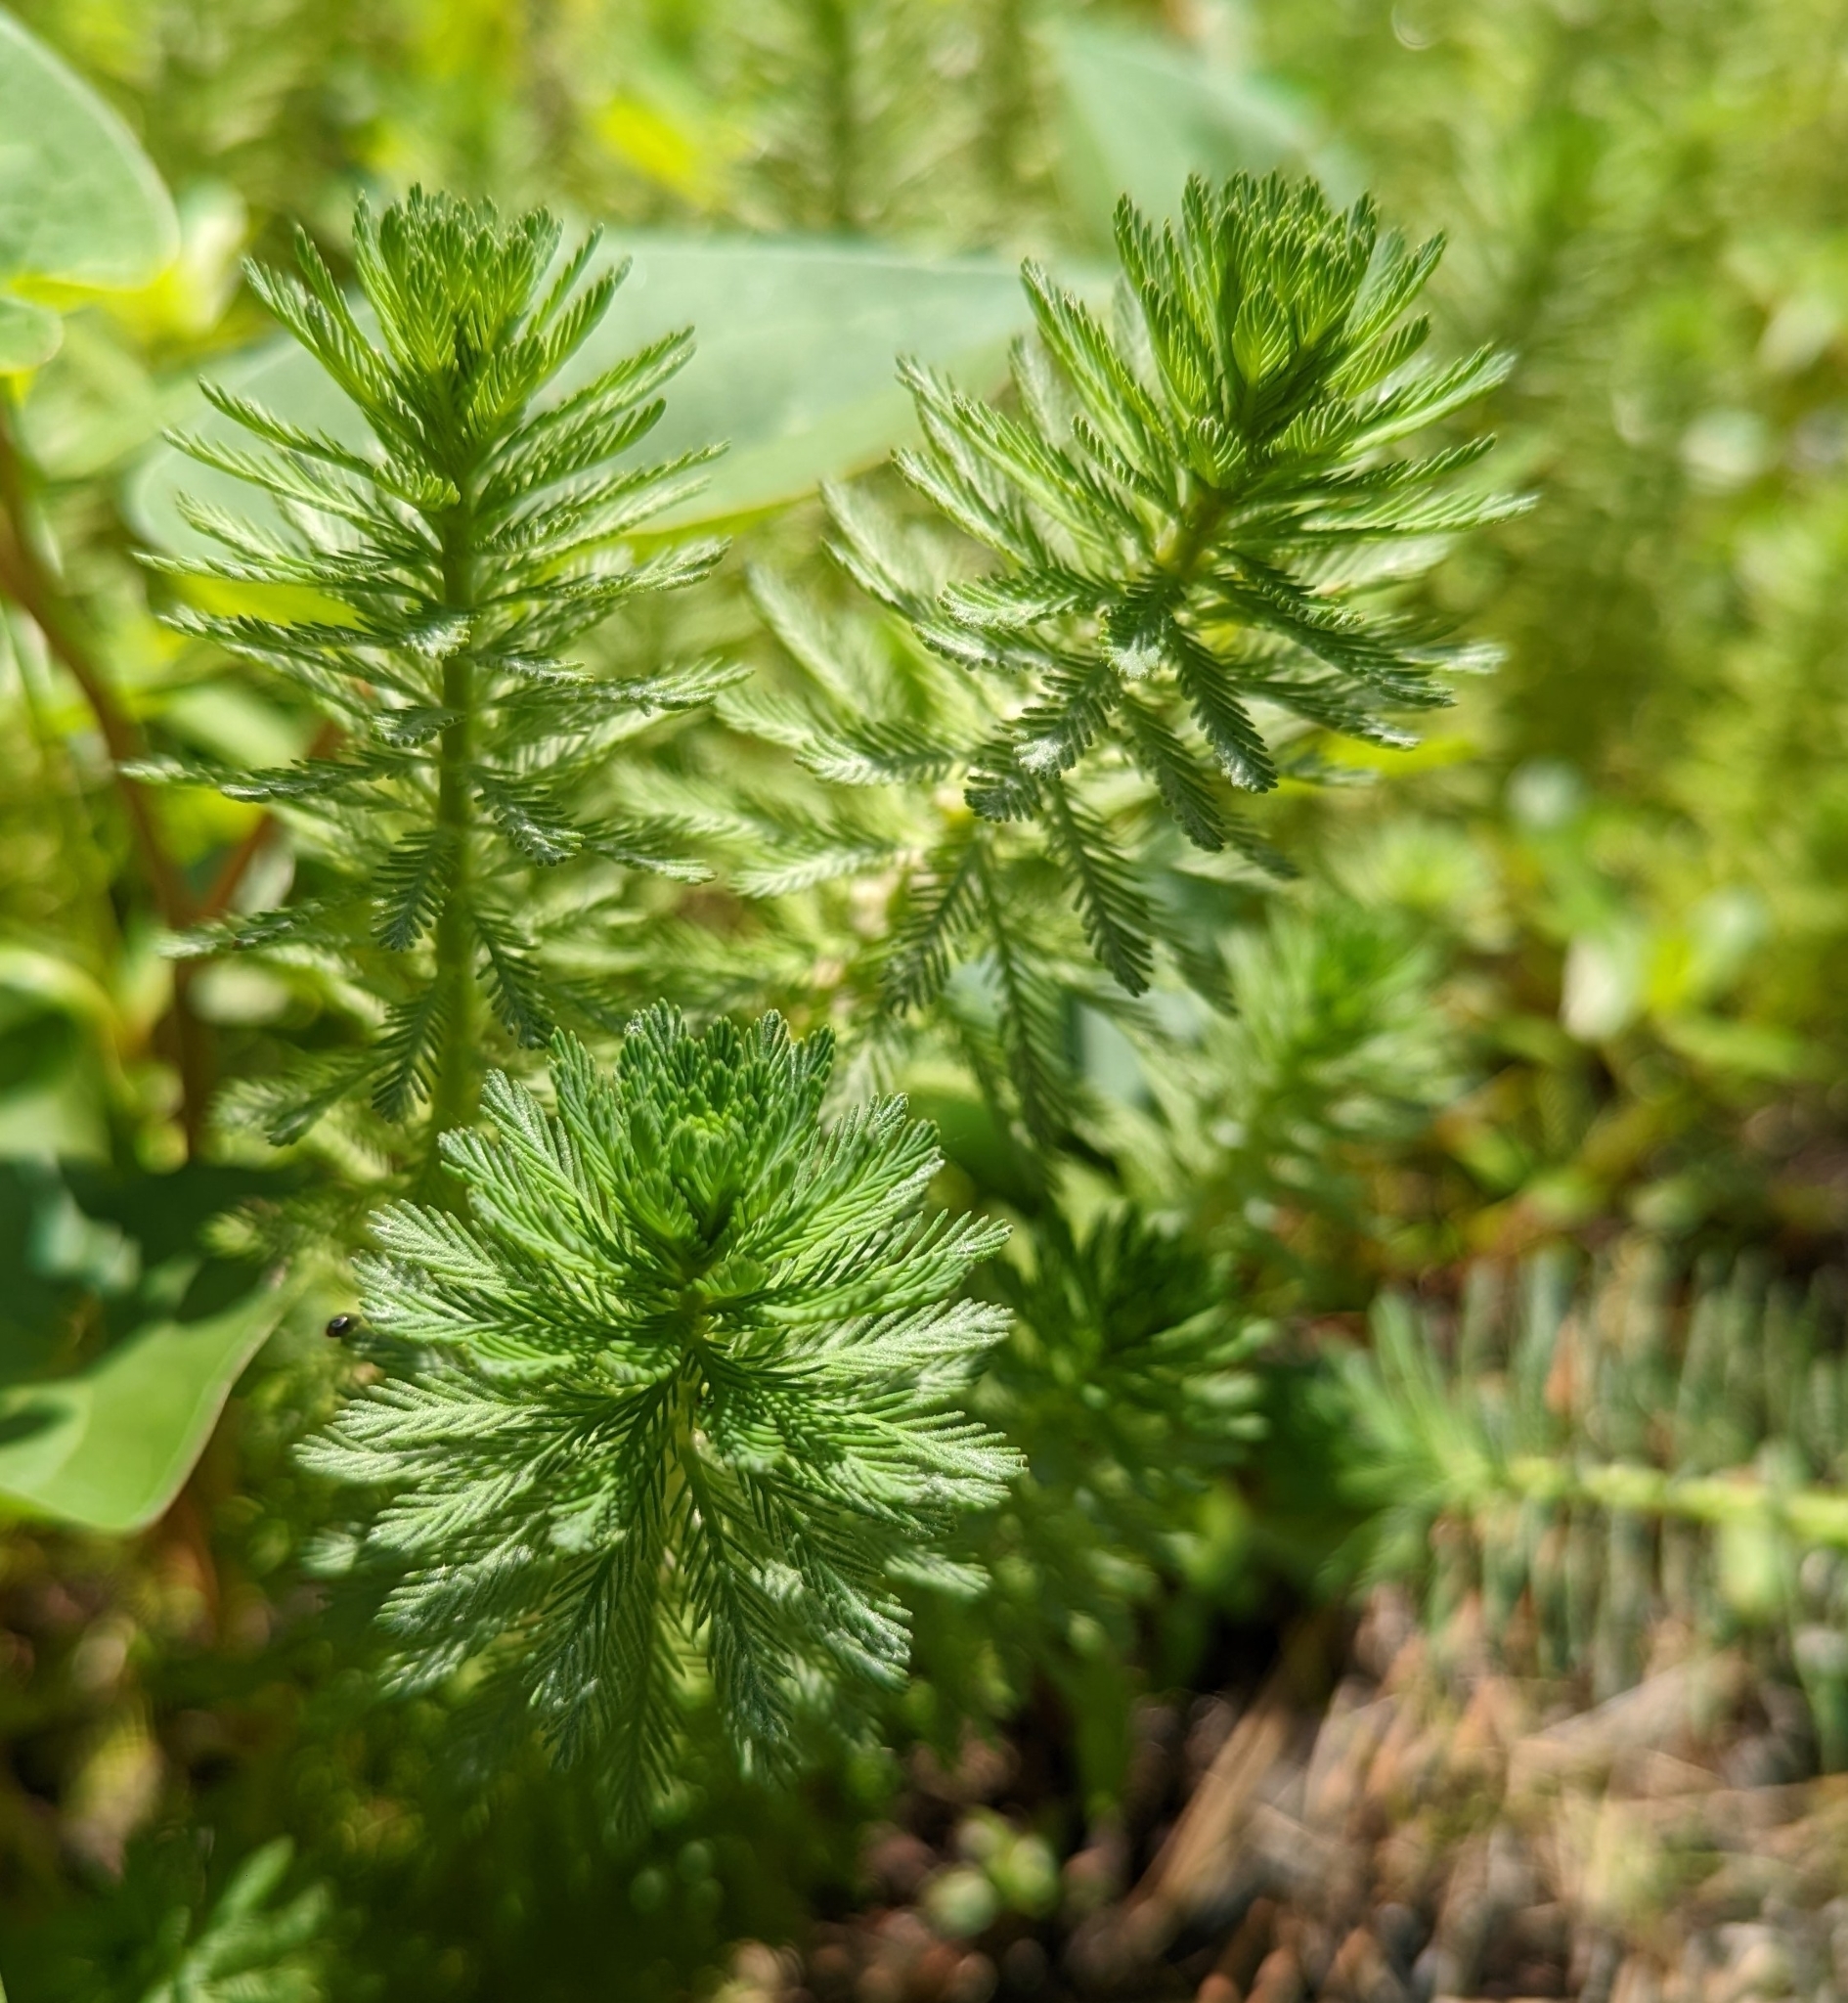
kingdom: Plantae
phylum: Tracheophyta
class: Magnoliopsida
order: Saxifragales
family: Haloragaceae
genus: Myriophyllum
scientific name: Myriophyllum aquaticum
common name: Parrot's feather
